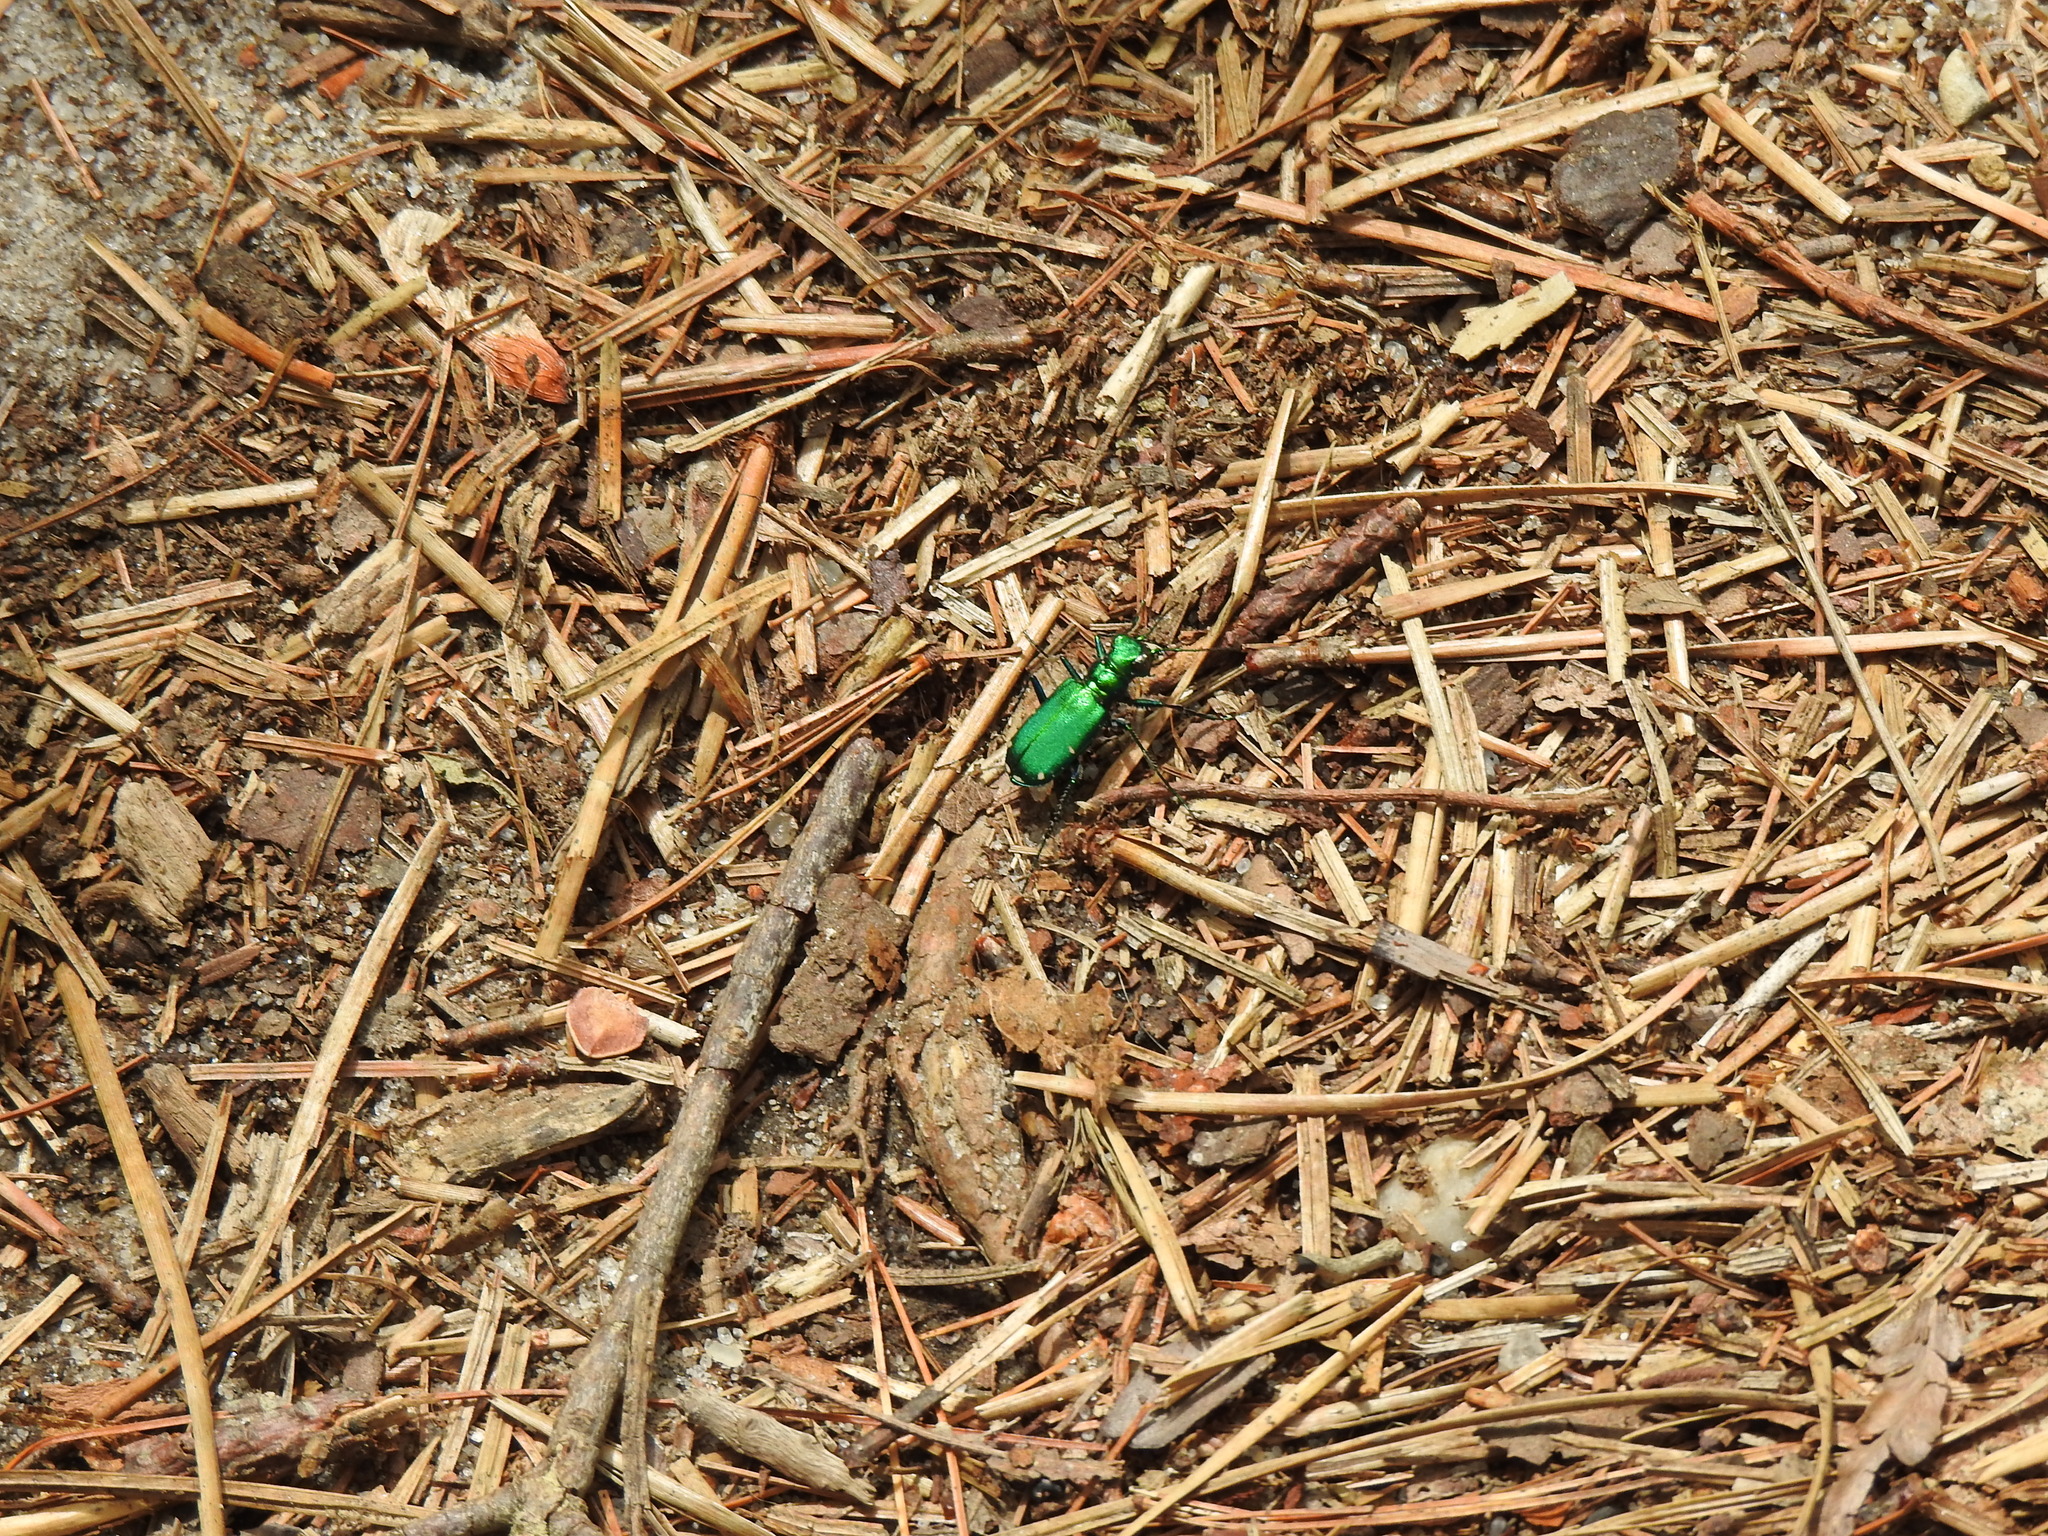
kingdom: Animalia
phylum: Arthropoda
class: Insecta
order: Coleoptera
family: Carabidae
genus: Cicindela
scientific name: Cicindela sexguttata
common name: Six-spotted tiger beetle
